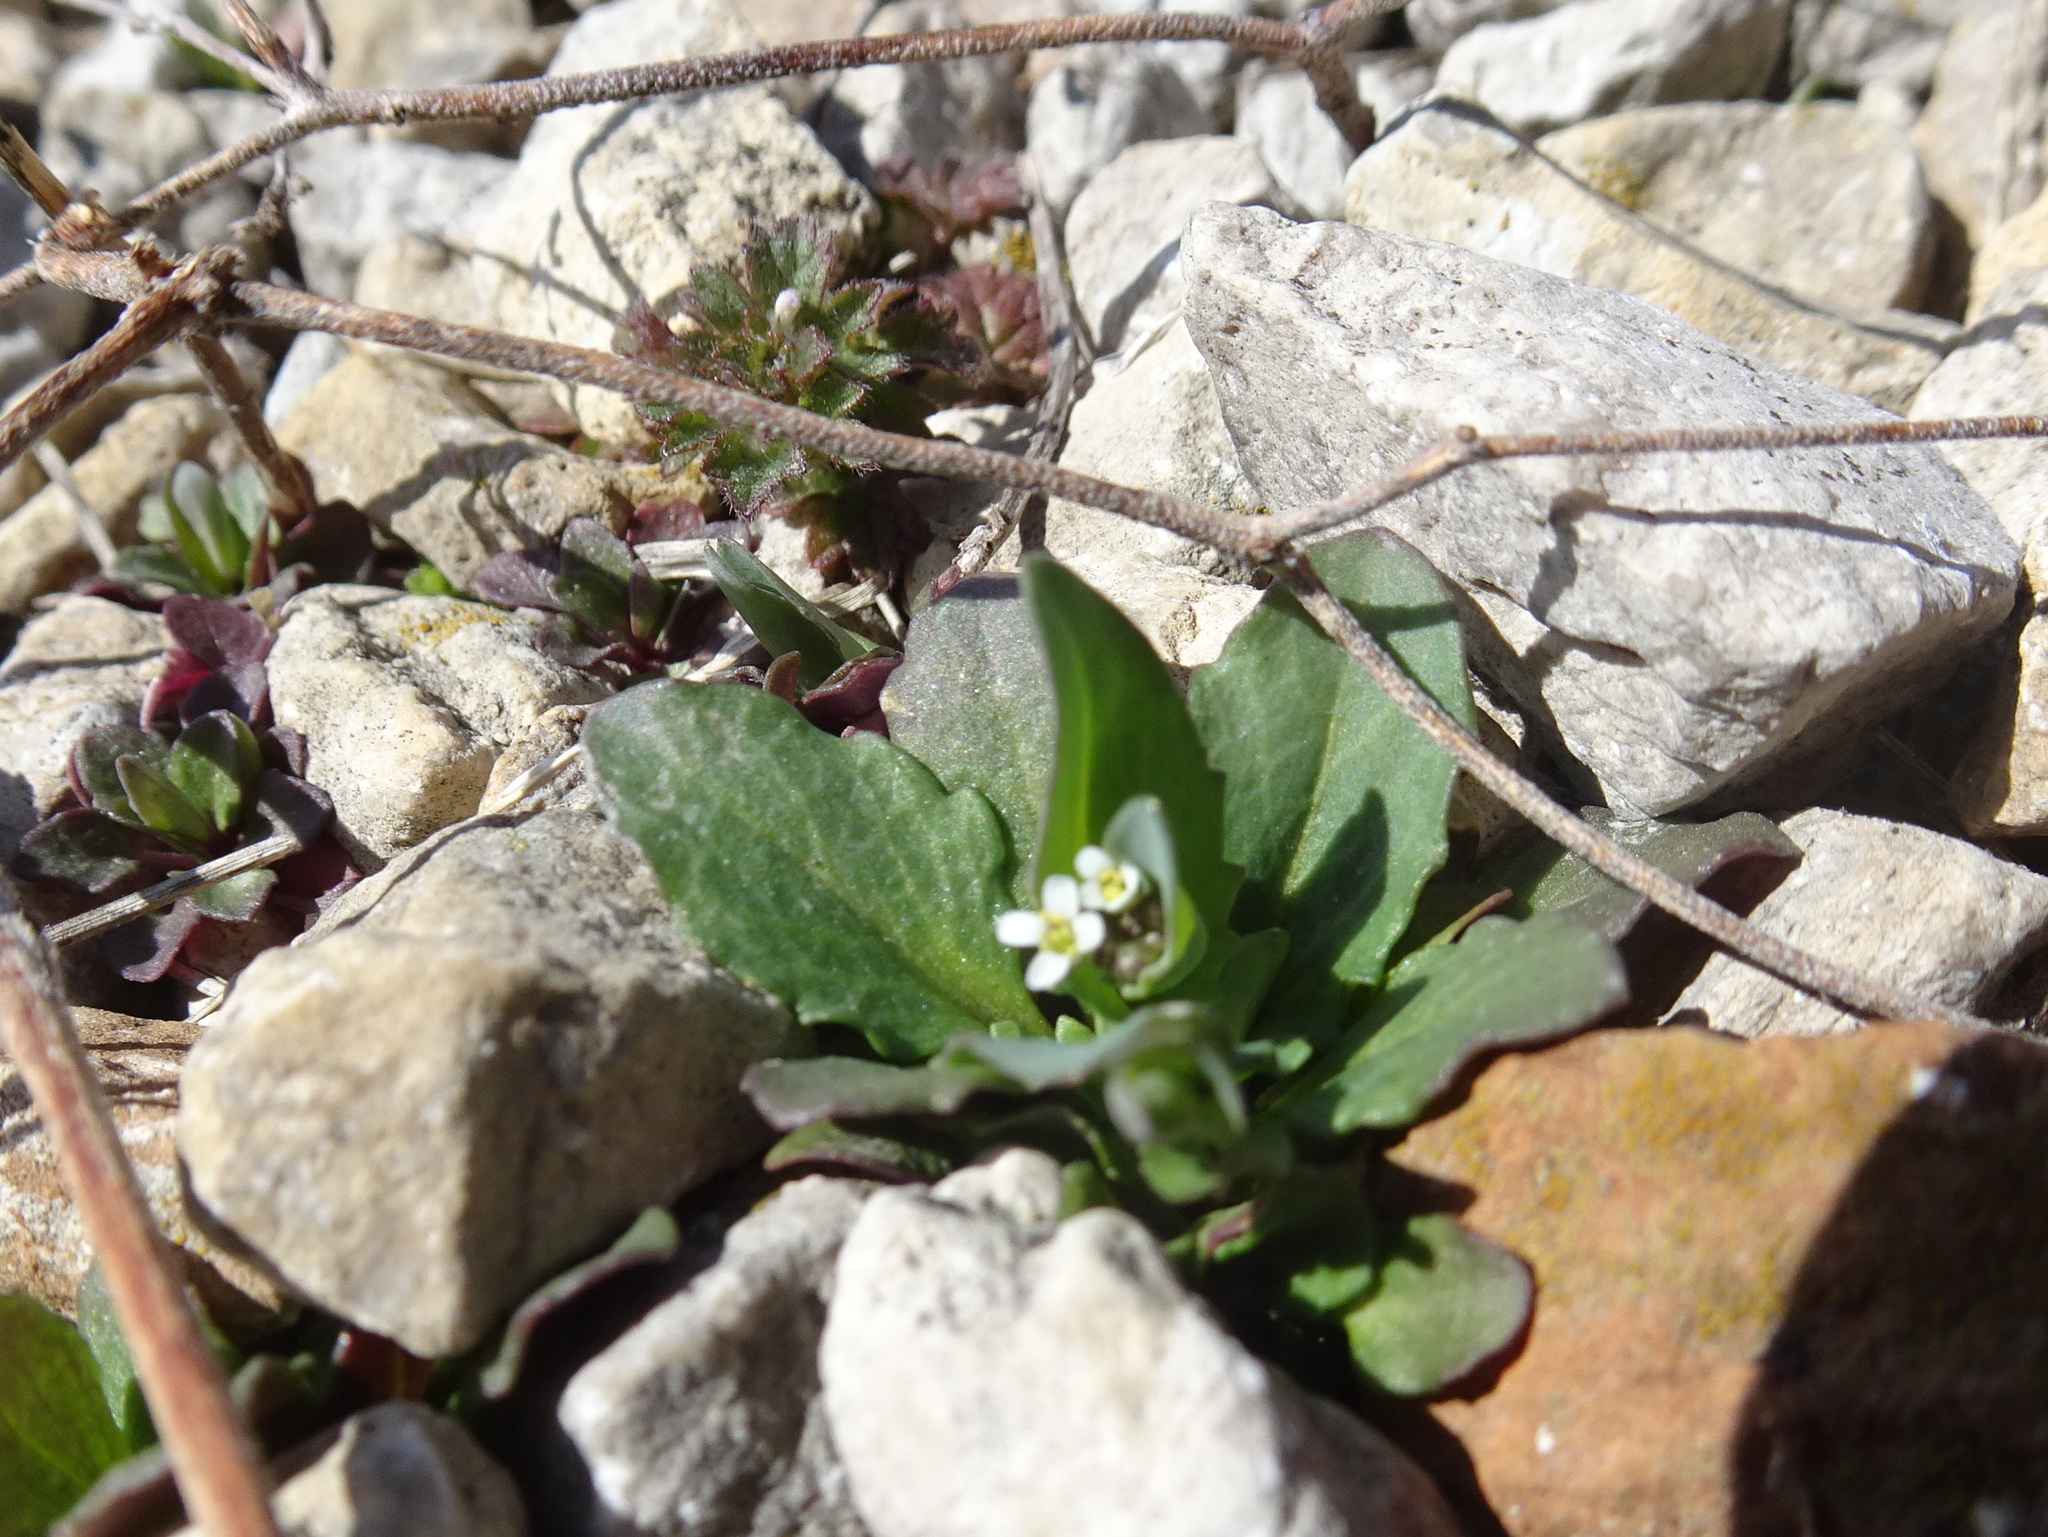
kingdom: Plantae
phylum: Tracheophyta
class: Magnoliopsida
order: Brassicales
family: Brassicaceae
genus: Noccaea
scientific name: Noccaea perfoliata
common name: Perfoliate pennycress
